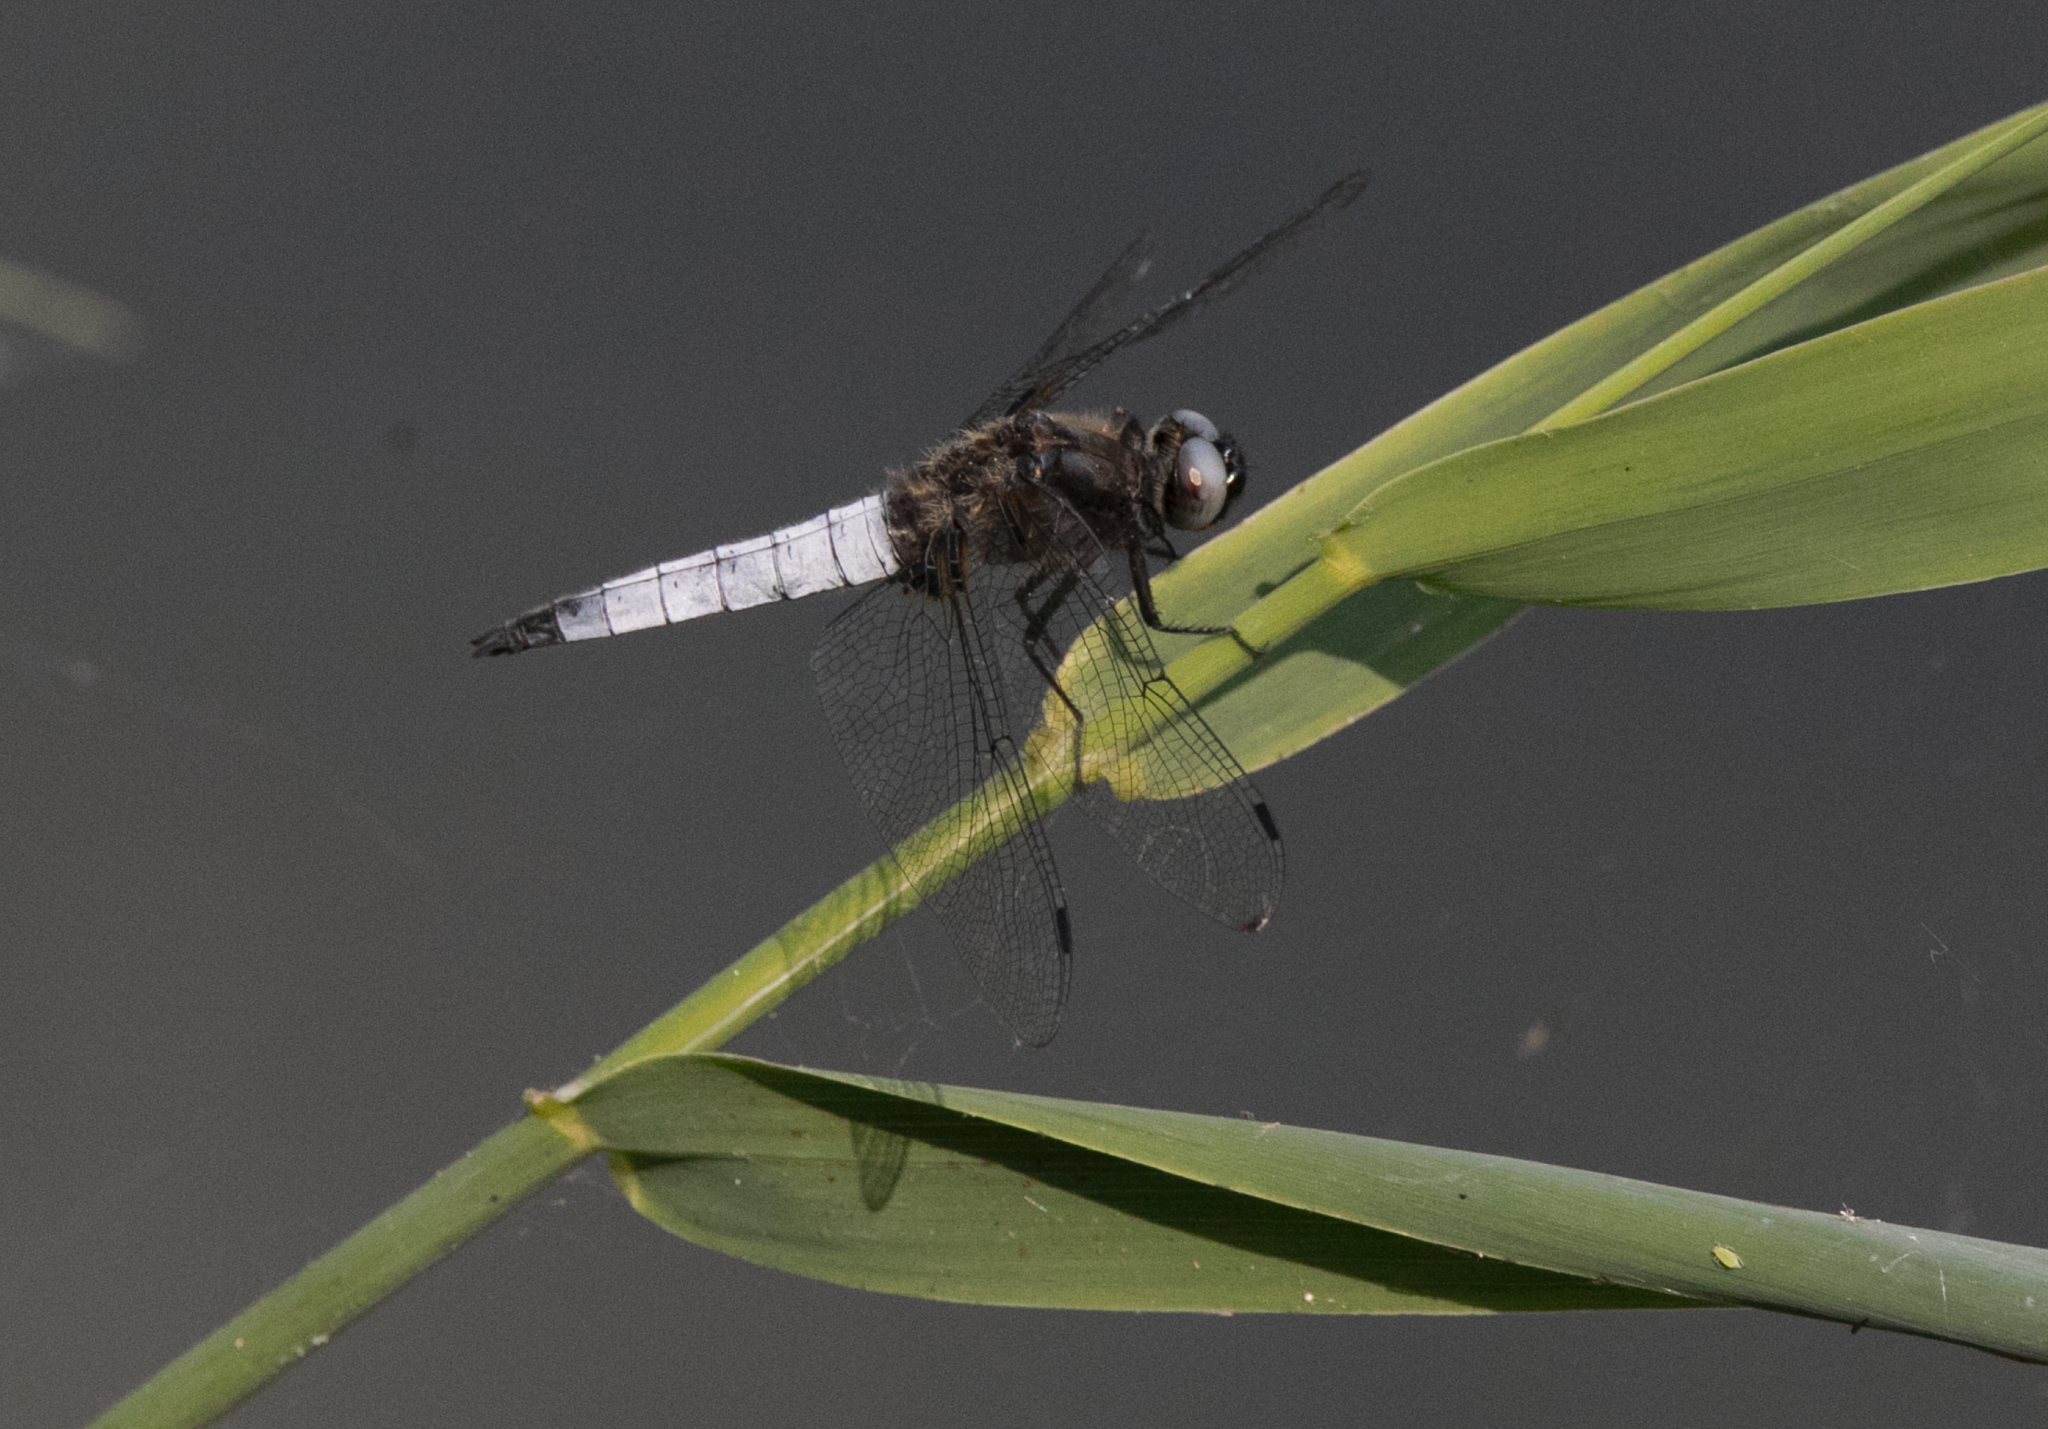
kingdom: Animalia
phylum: Arthropoda
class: Insecta
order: Odonata
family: Libellulidae
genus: Libellula
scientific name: Libellula fulva
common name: Blue chaser
